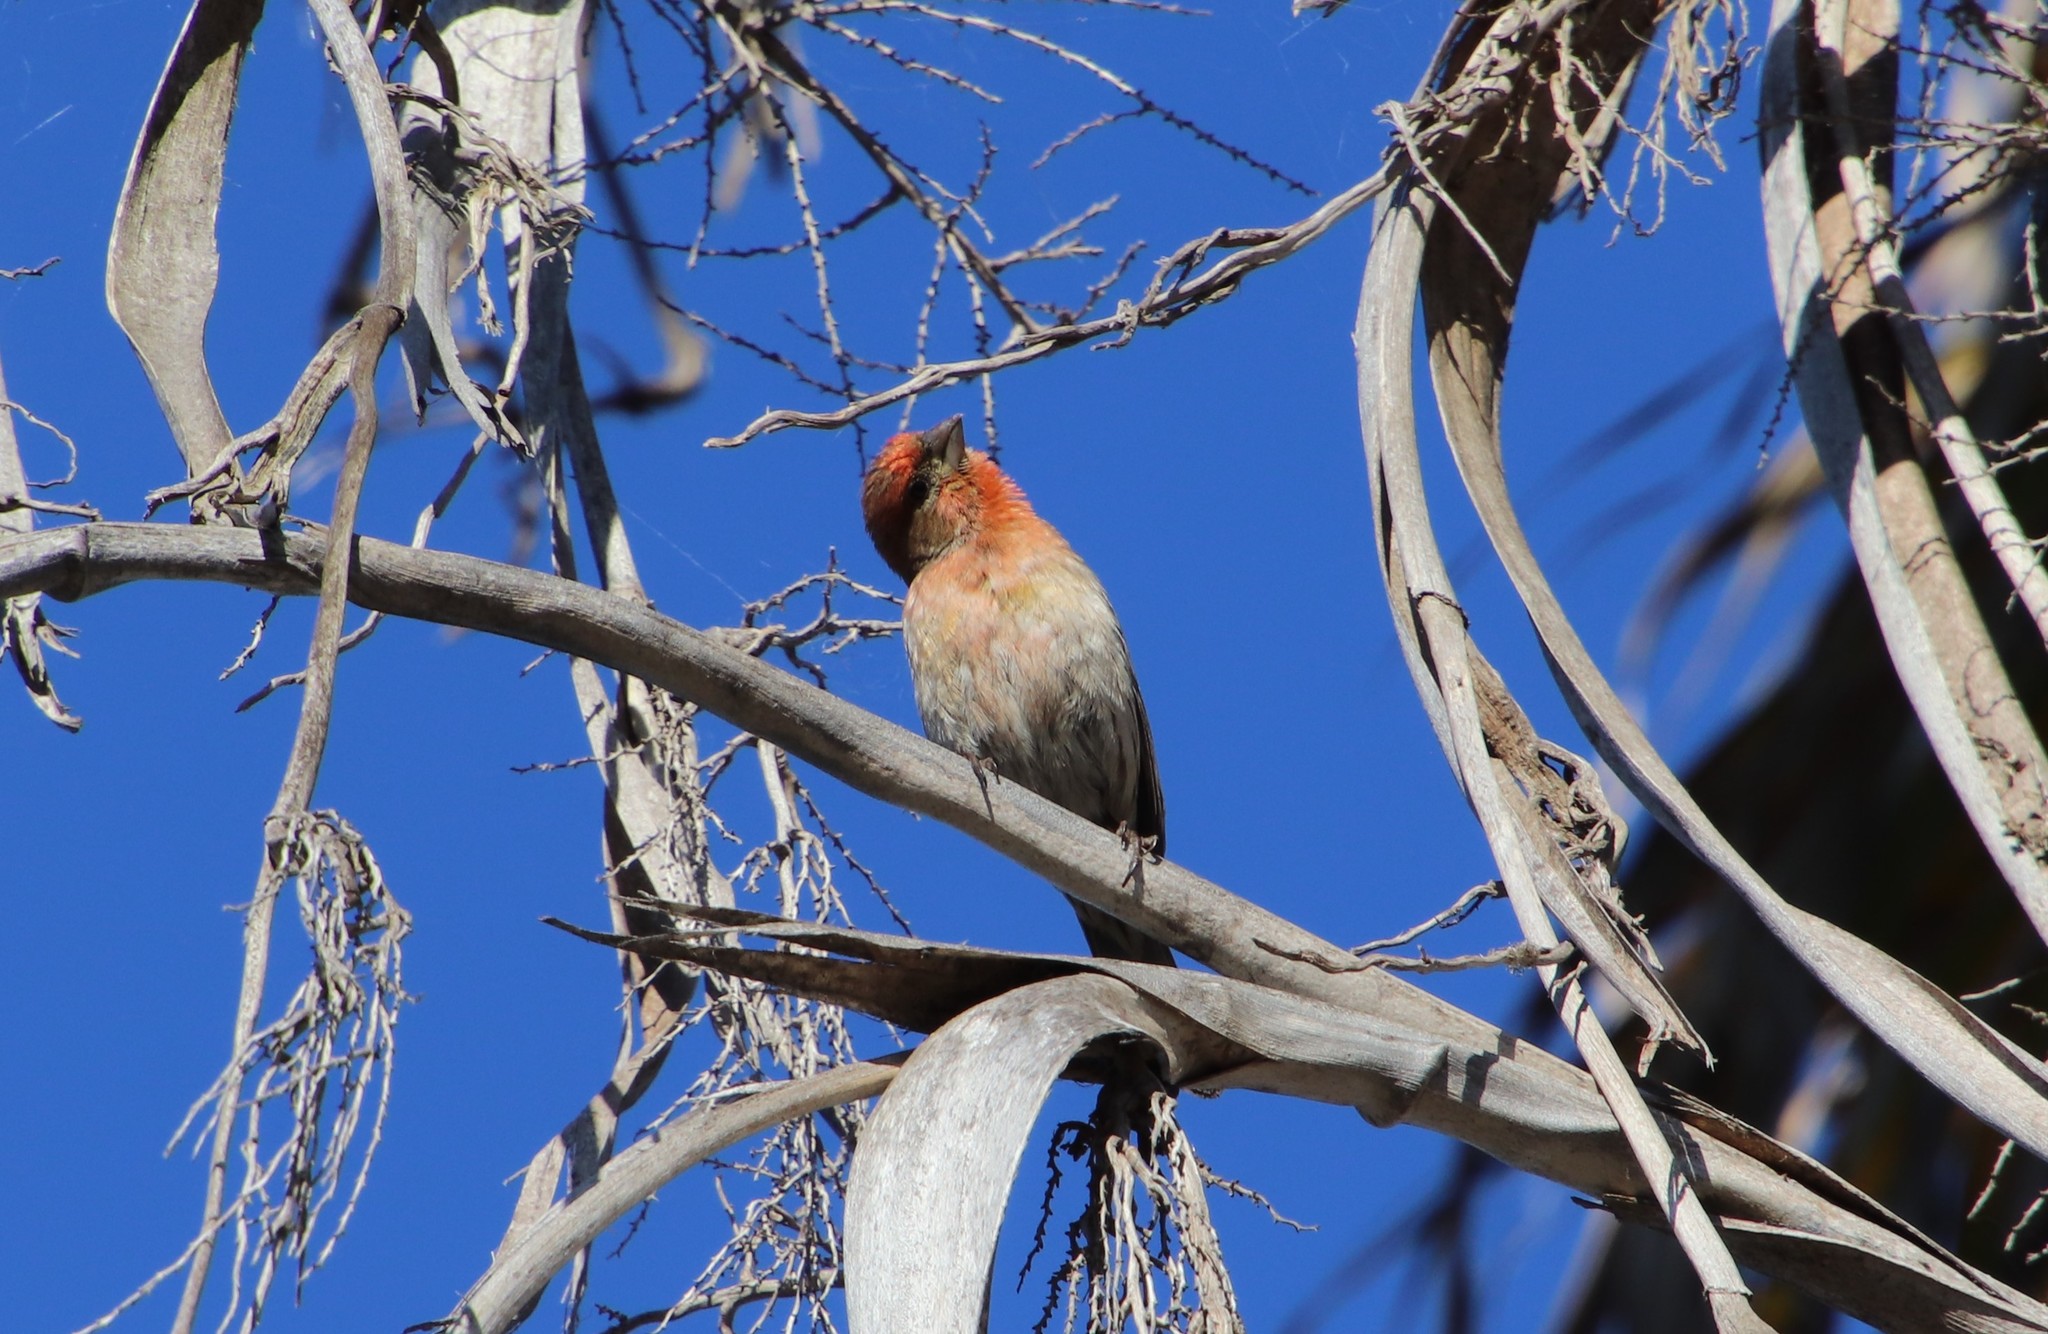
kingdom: Animalia
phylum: Chordata
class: Aves
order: Passeriformes
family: Fringillidae
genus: Haemorhous
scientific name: Haemorhous mexicanus
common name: House finch
